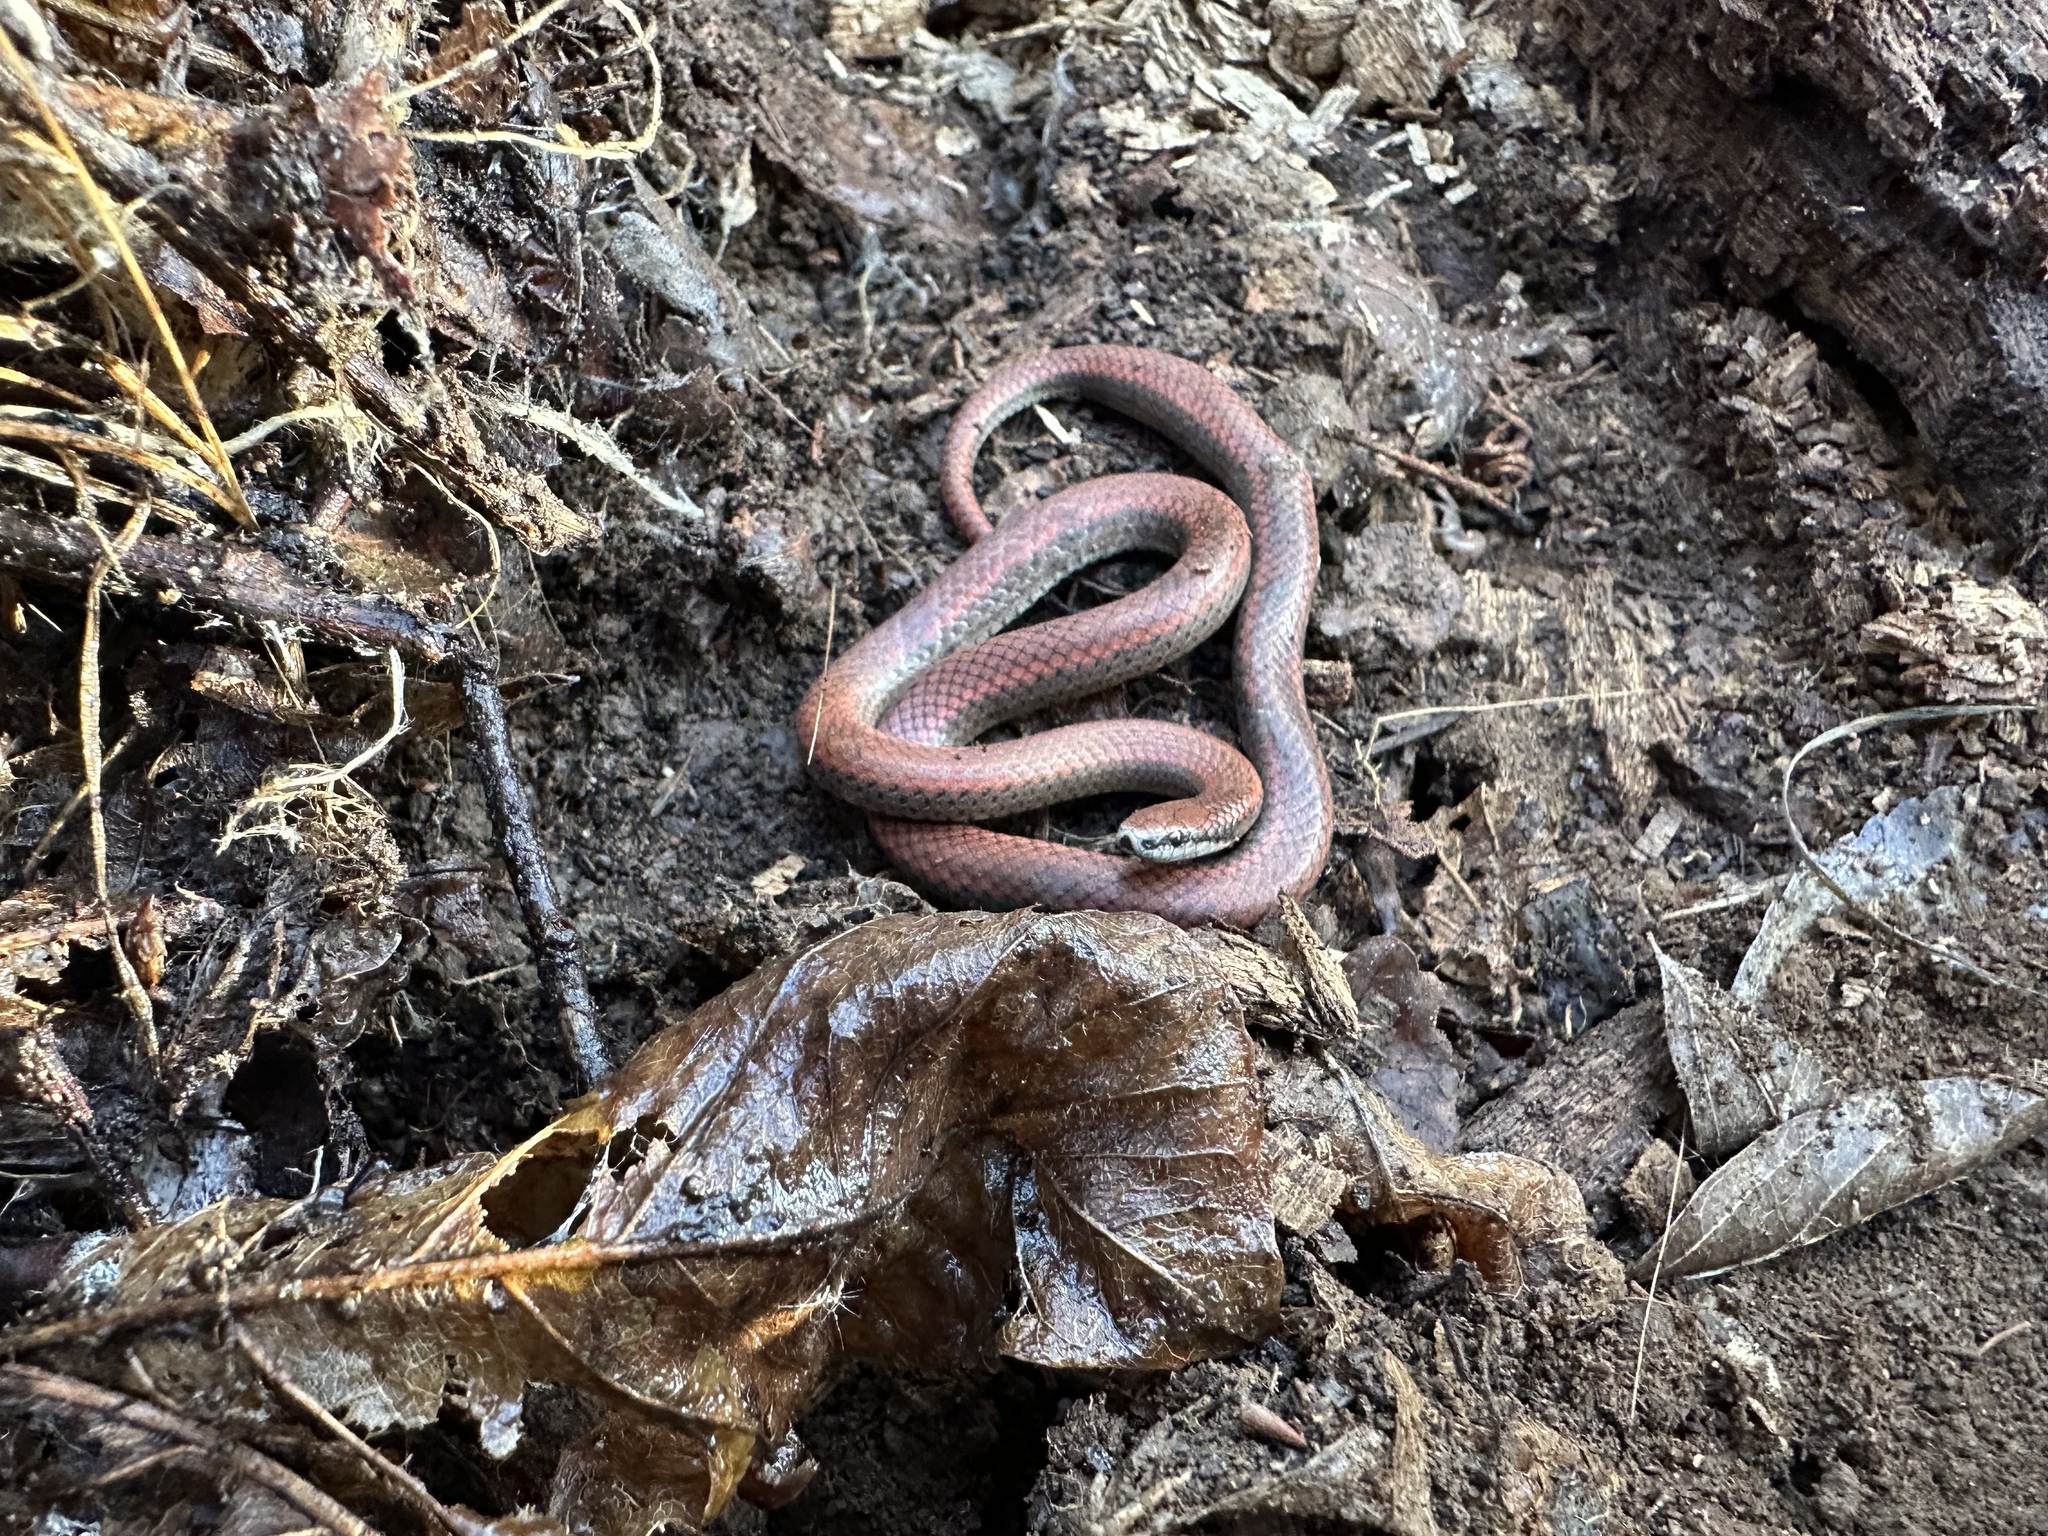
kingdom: Animalia
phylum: Chordata
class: Squamata
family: Colubridae
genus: Contia
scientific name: Contia tenuis
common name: Sharptail snake
